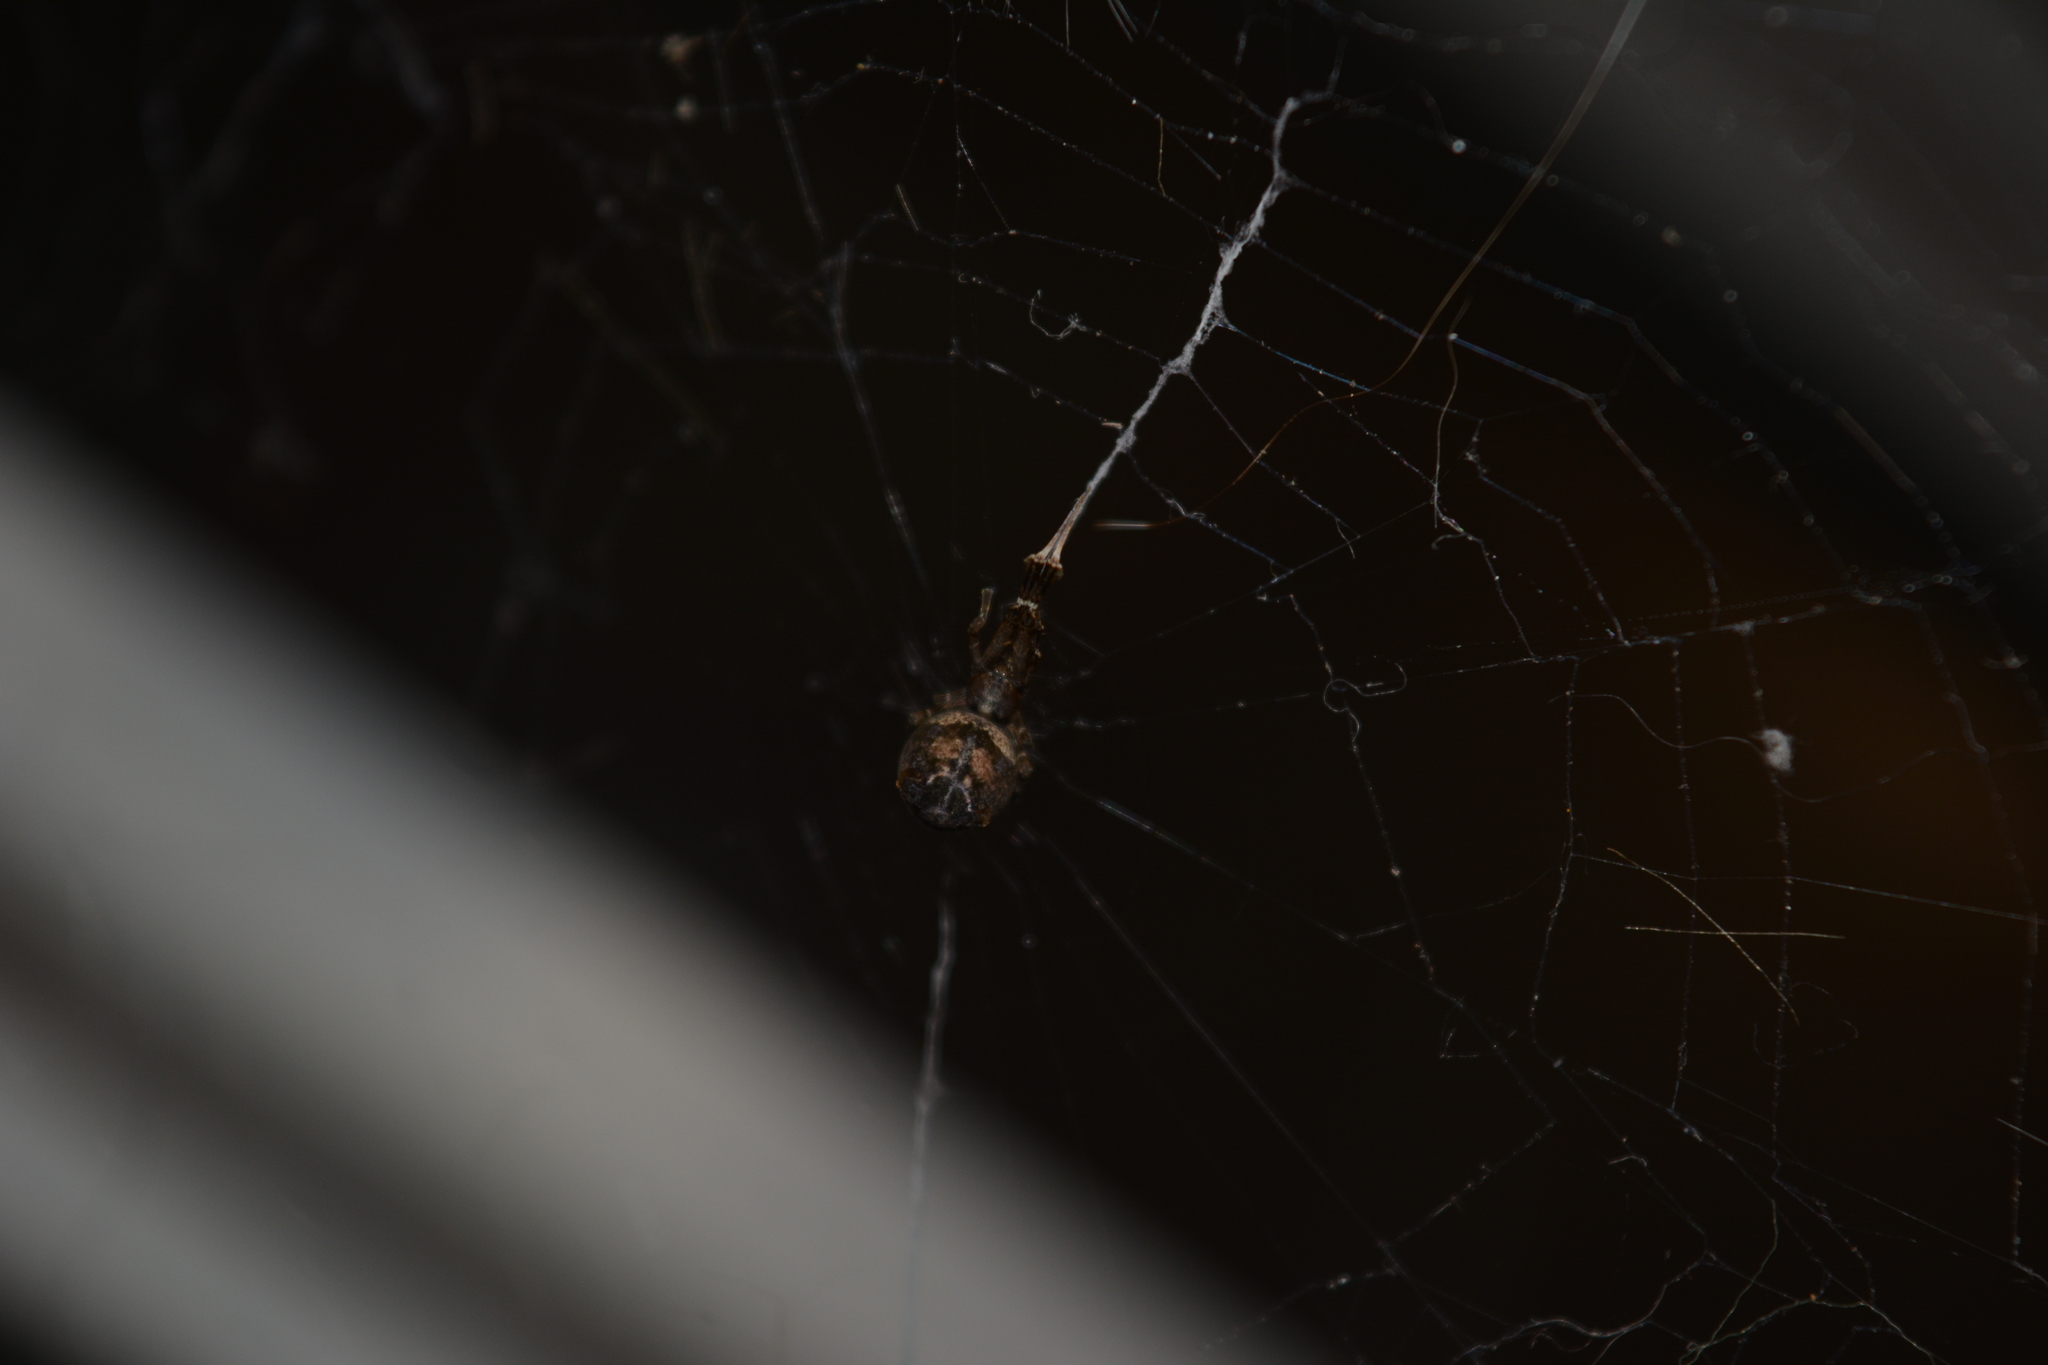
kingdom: Animalia
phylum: Arthropoda
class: Arachnida
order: Araneae
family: Uloboridae
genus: Uloborus
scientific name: Uloborus plumipes
